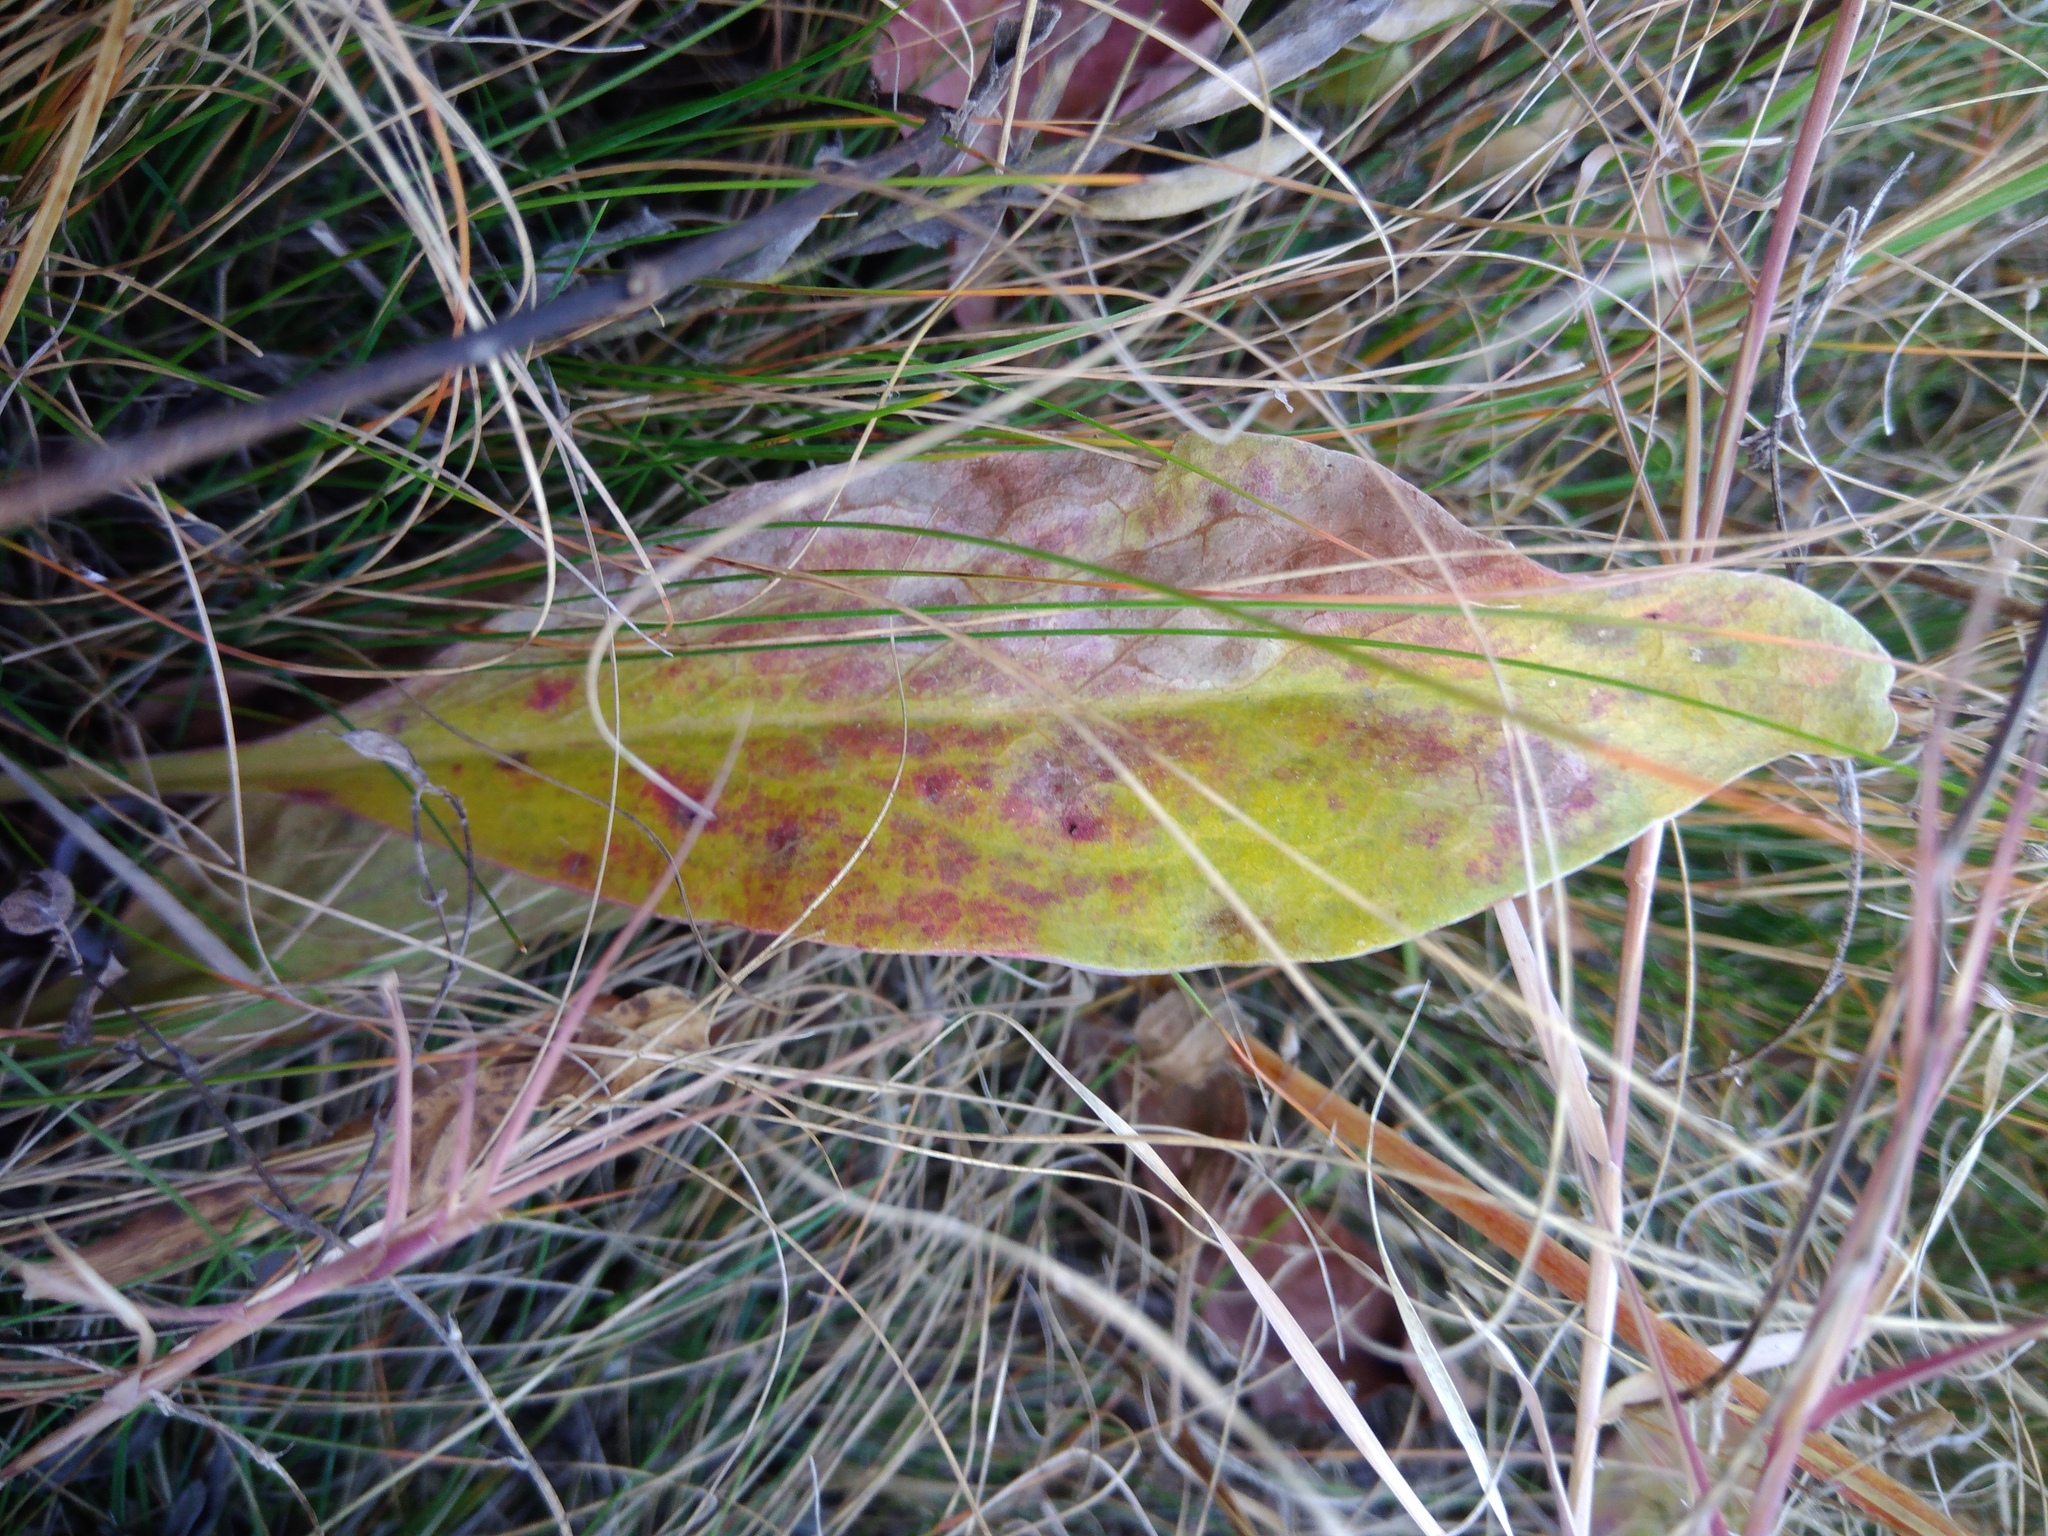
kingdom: Plantae
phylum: Tracheophyta
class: Magnoliopsida
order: Caryophyllales
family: Plumbaginaceae
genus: Limonium
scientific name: Limonium alutaceum
